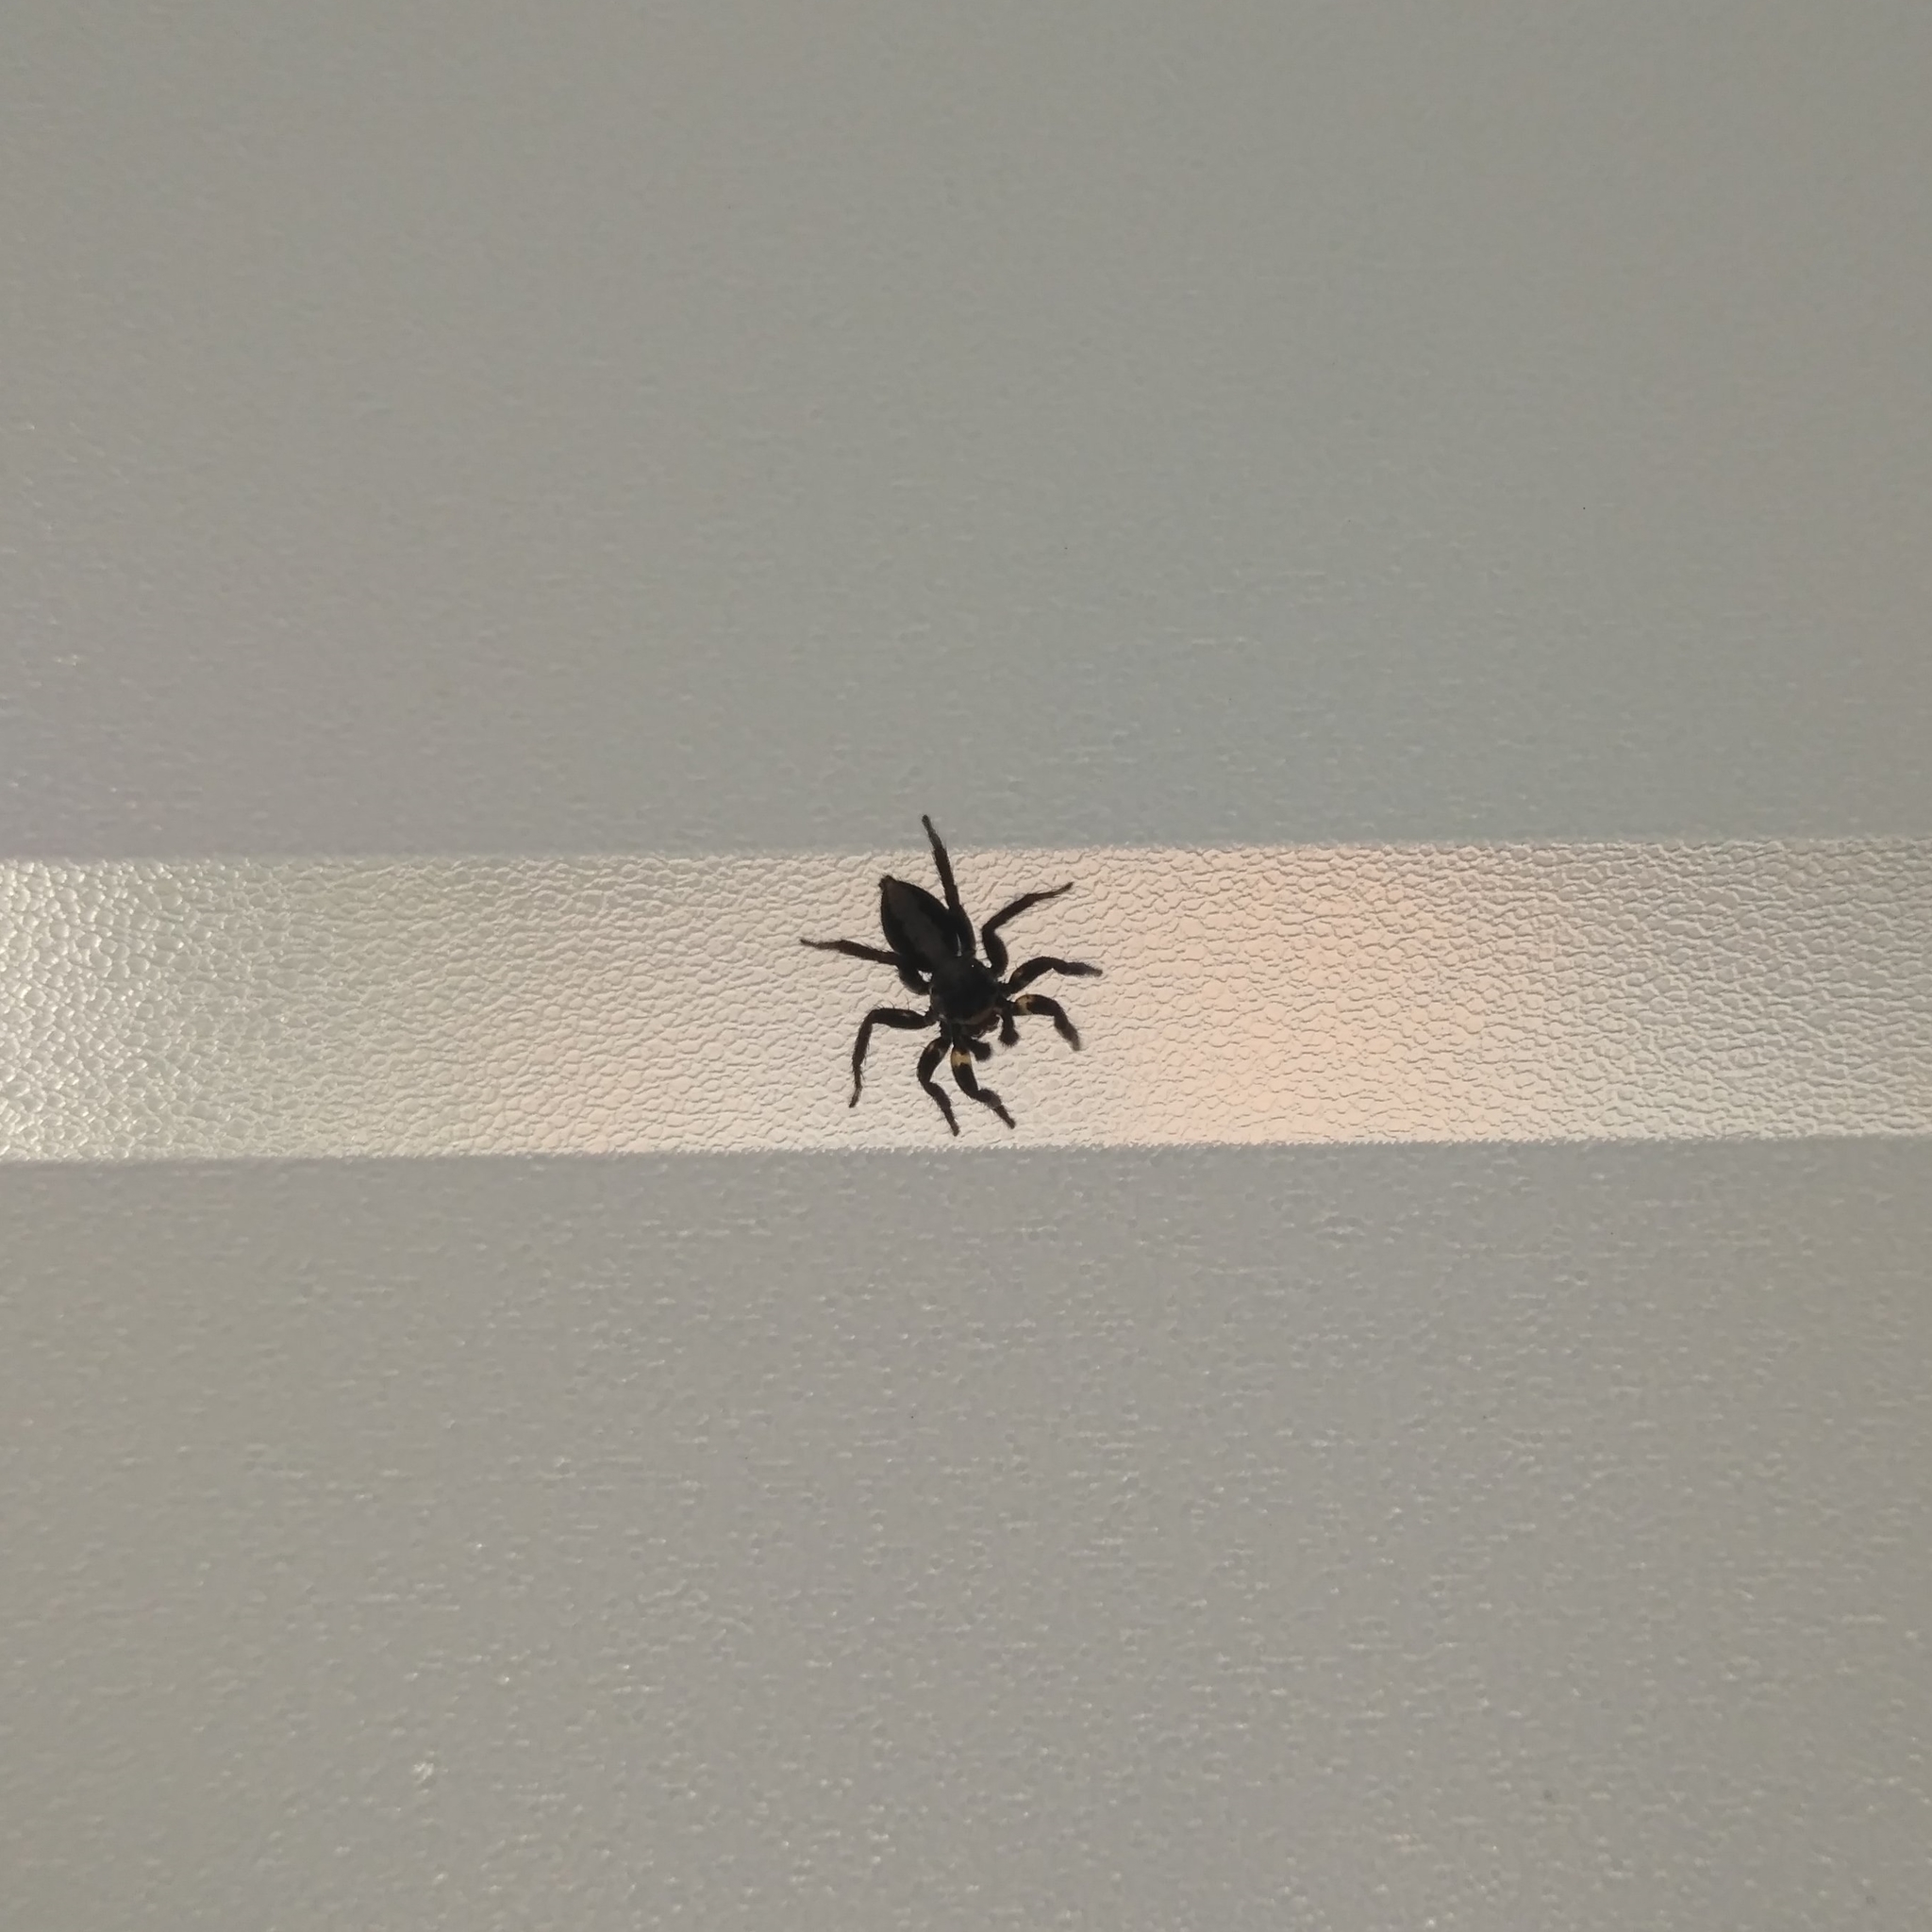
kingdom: Animalia
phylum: Arthropoda
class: Arachnida
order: Araneae
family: Salticidae
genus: Saphrys
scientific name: Saphrys rusticana
